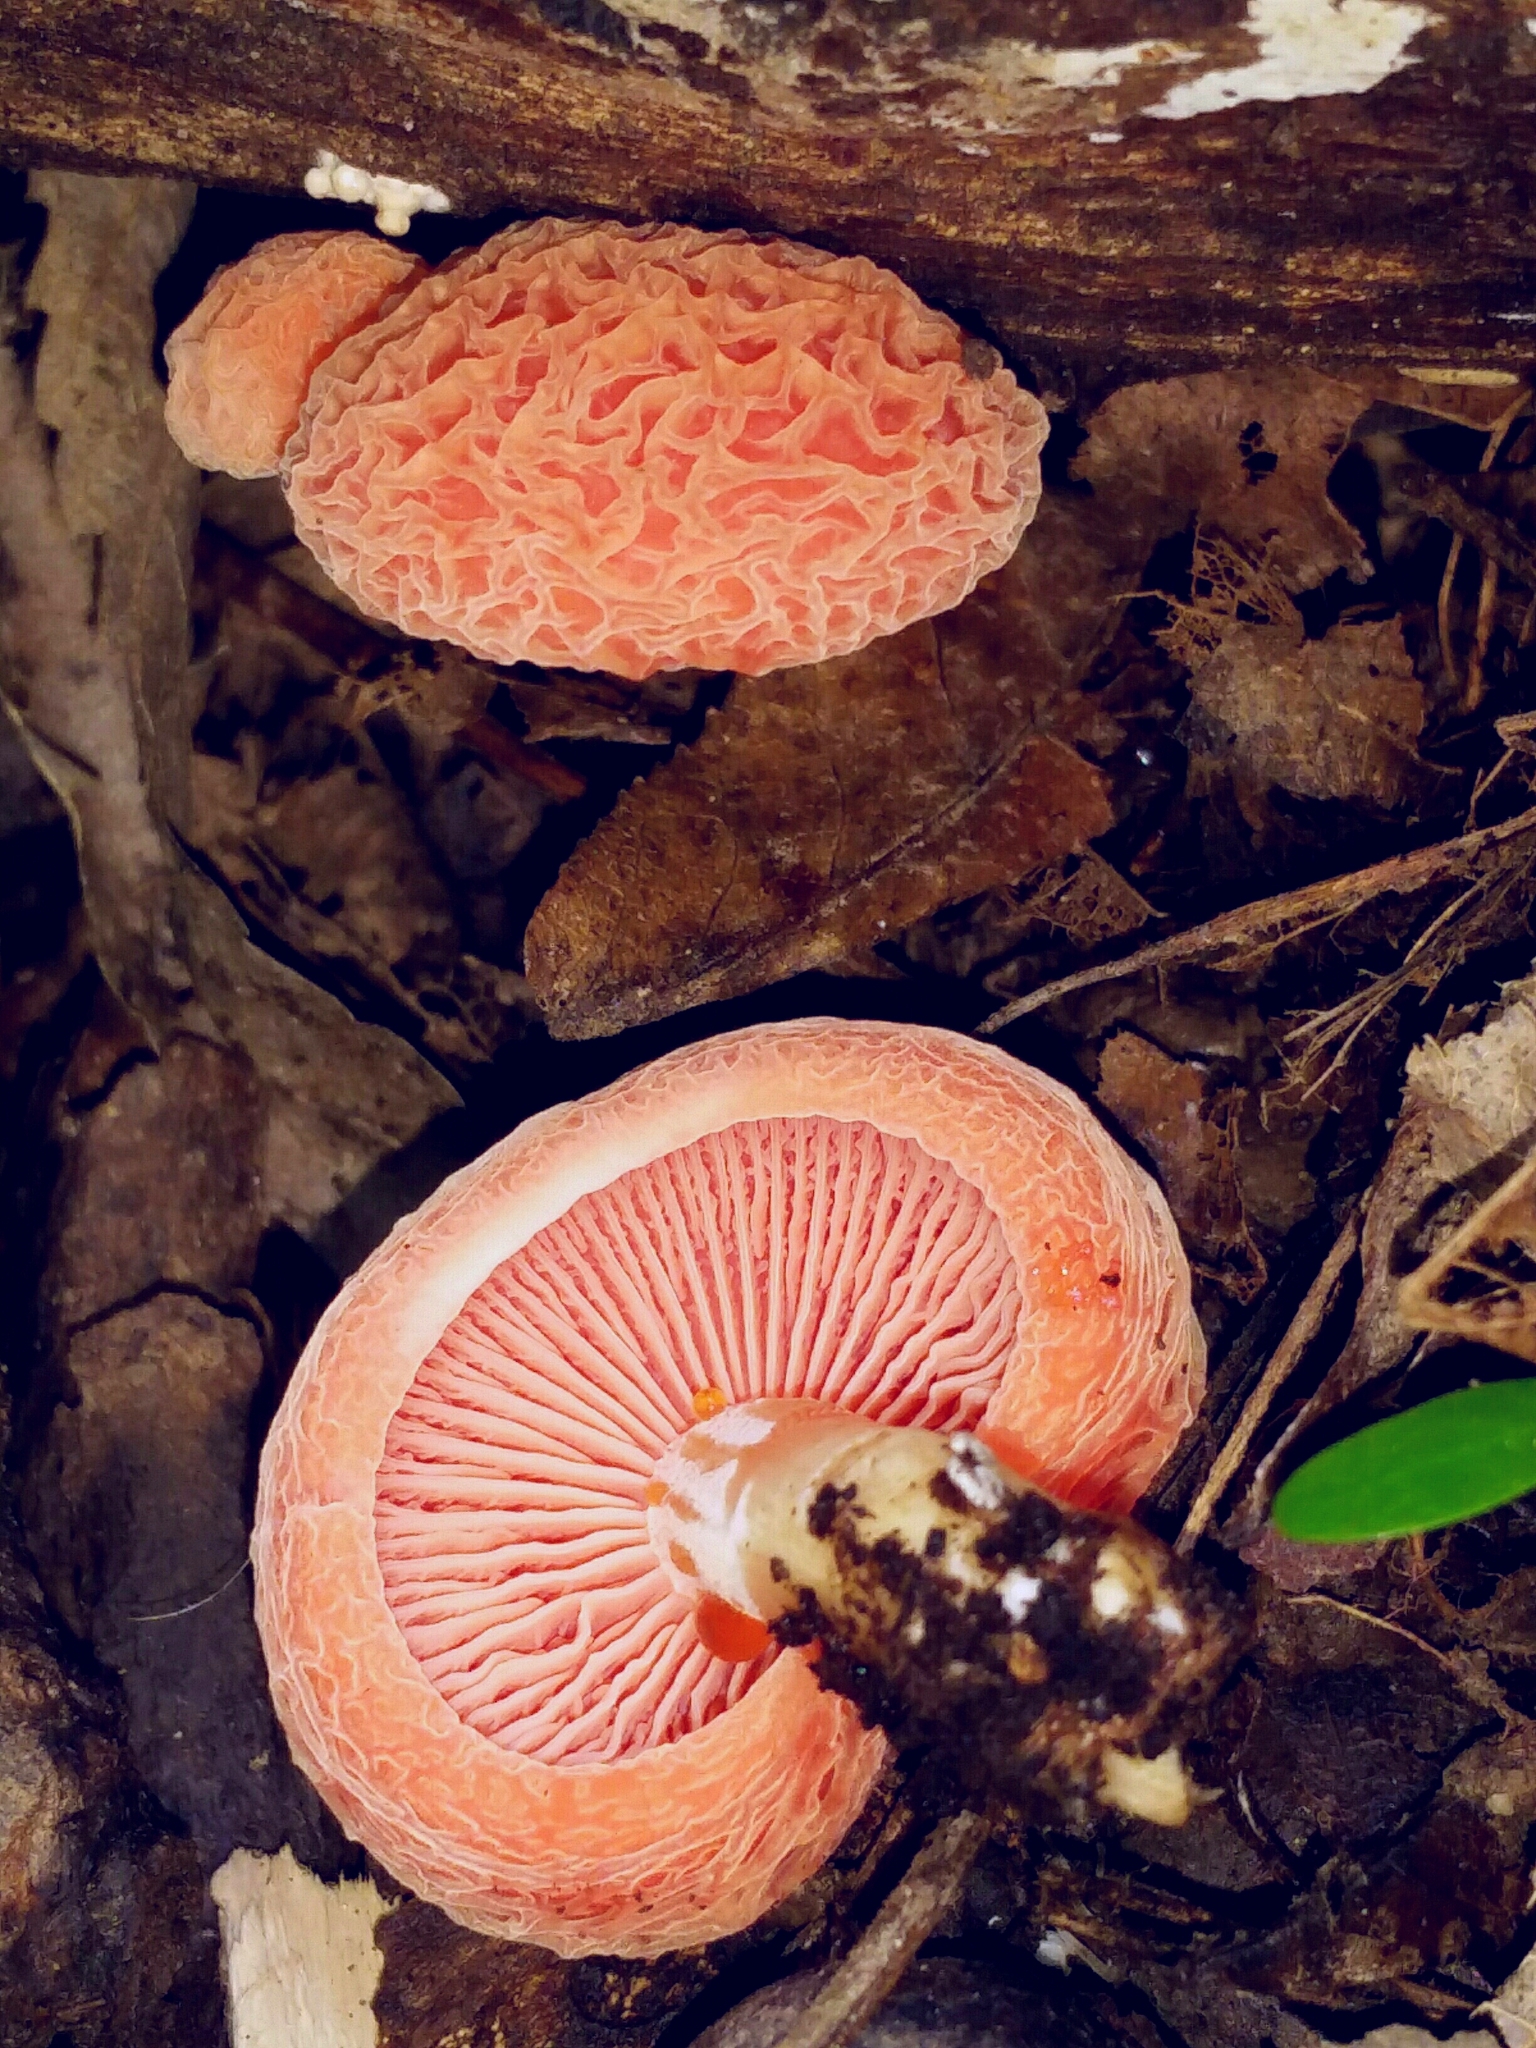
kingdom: Fungi
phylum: Basidiomycota
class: Agaricomycetes
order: Agaricales
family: Physalacriaceae
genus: Rhodotus
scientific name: Rhodotus palmatus
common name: Wrinkled peach
